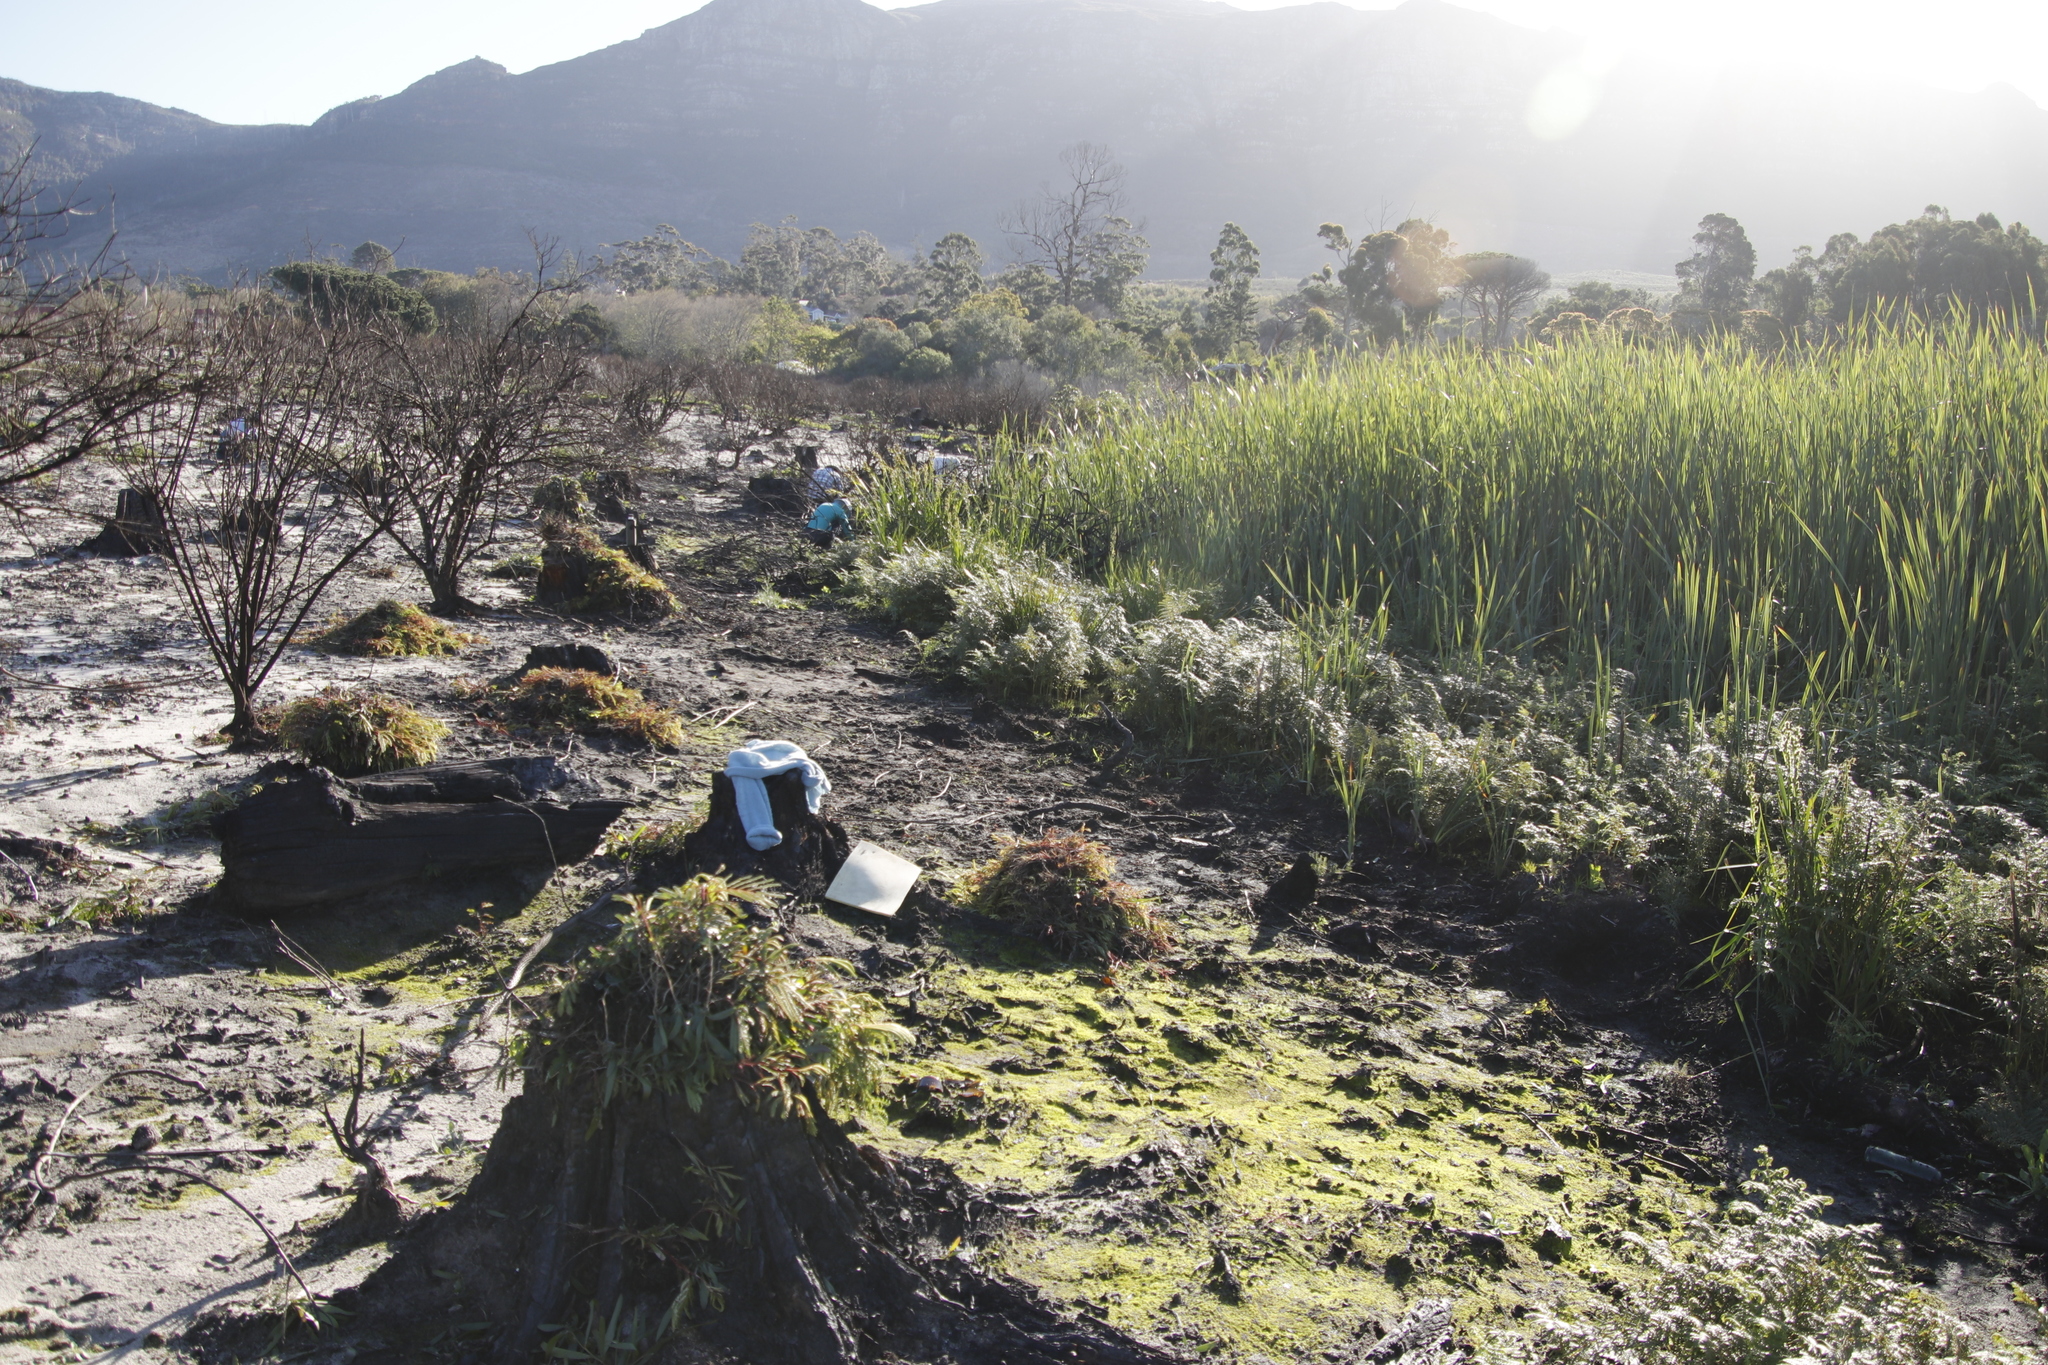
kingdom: Plantae
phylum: Tracheophyta
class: Magnoliopsida
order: Fabales
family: Fabaceae
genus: Paraserianthes
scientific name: Paraserianthes lophantha
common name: Plume albizia
